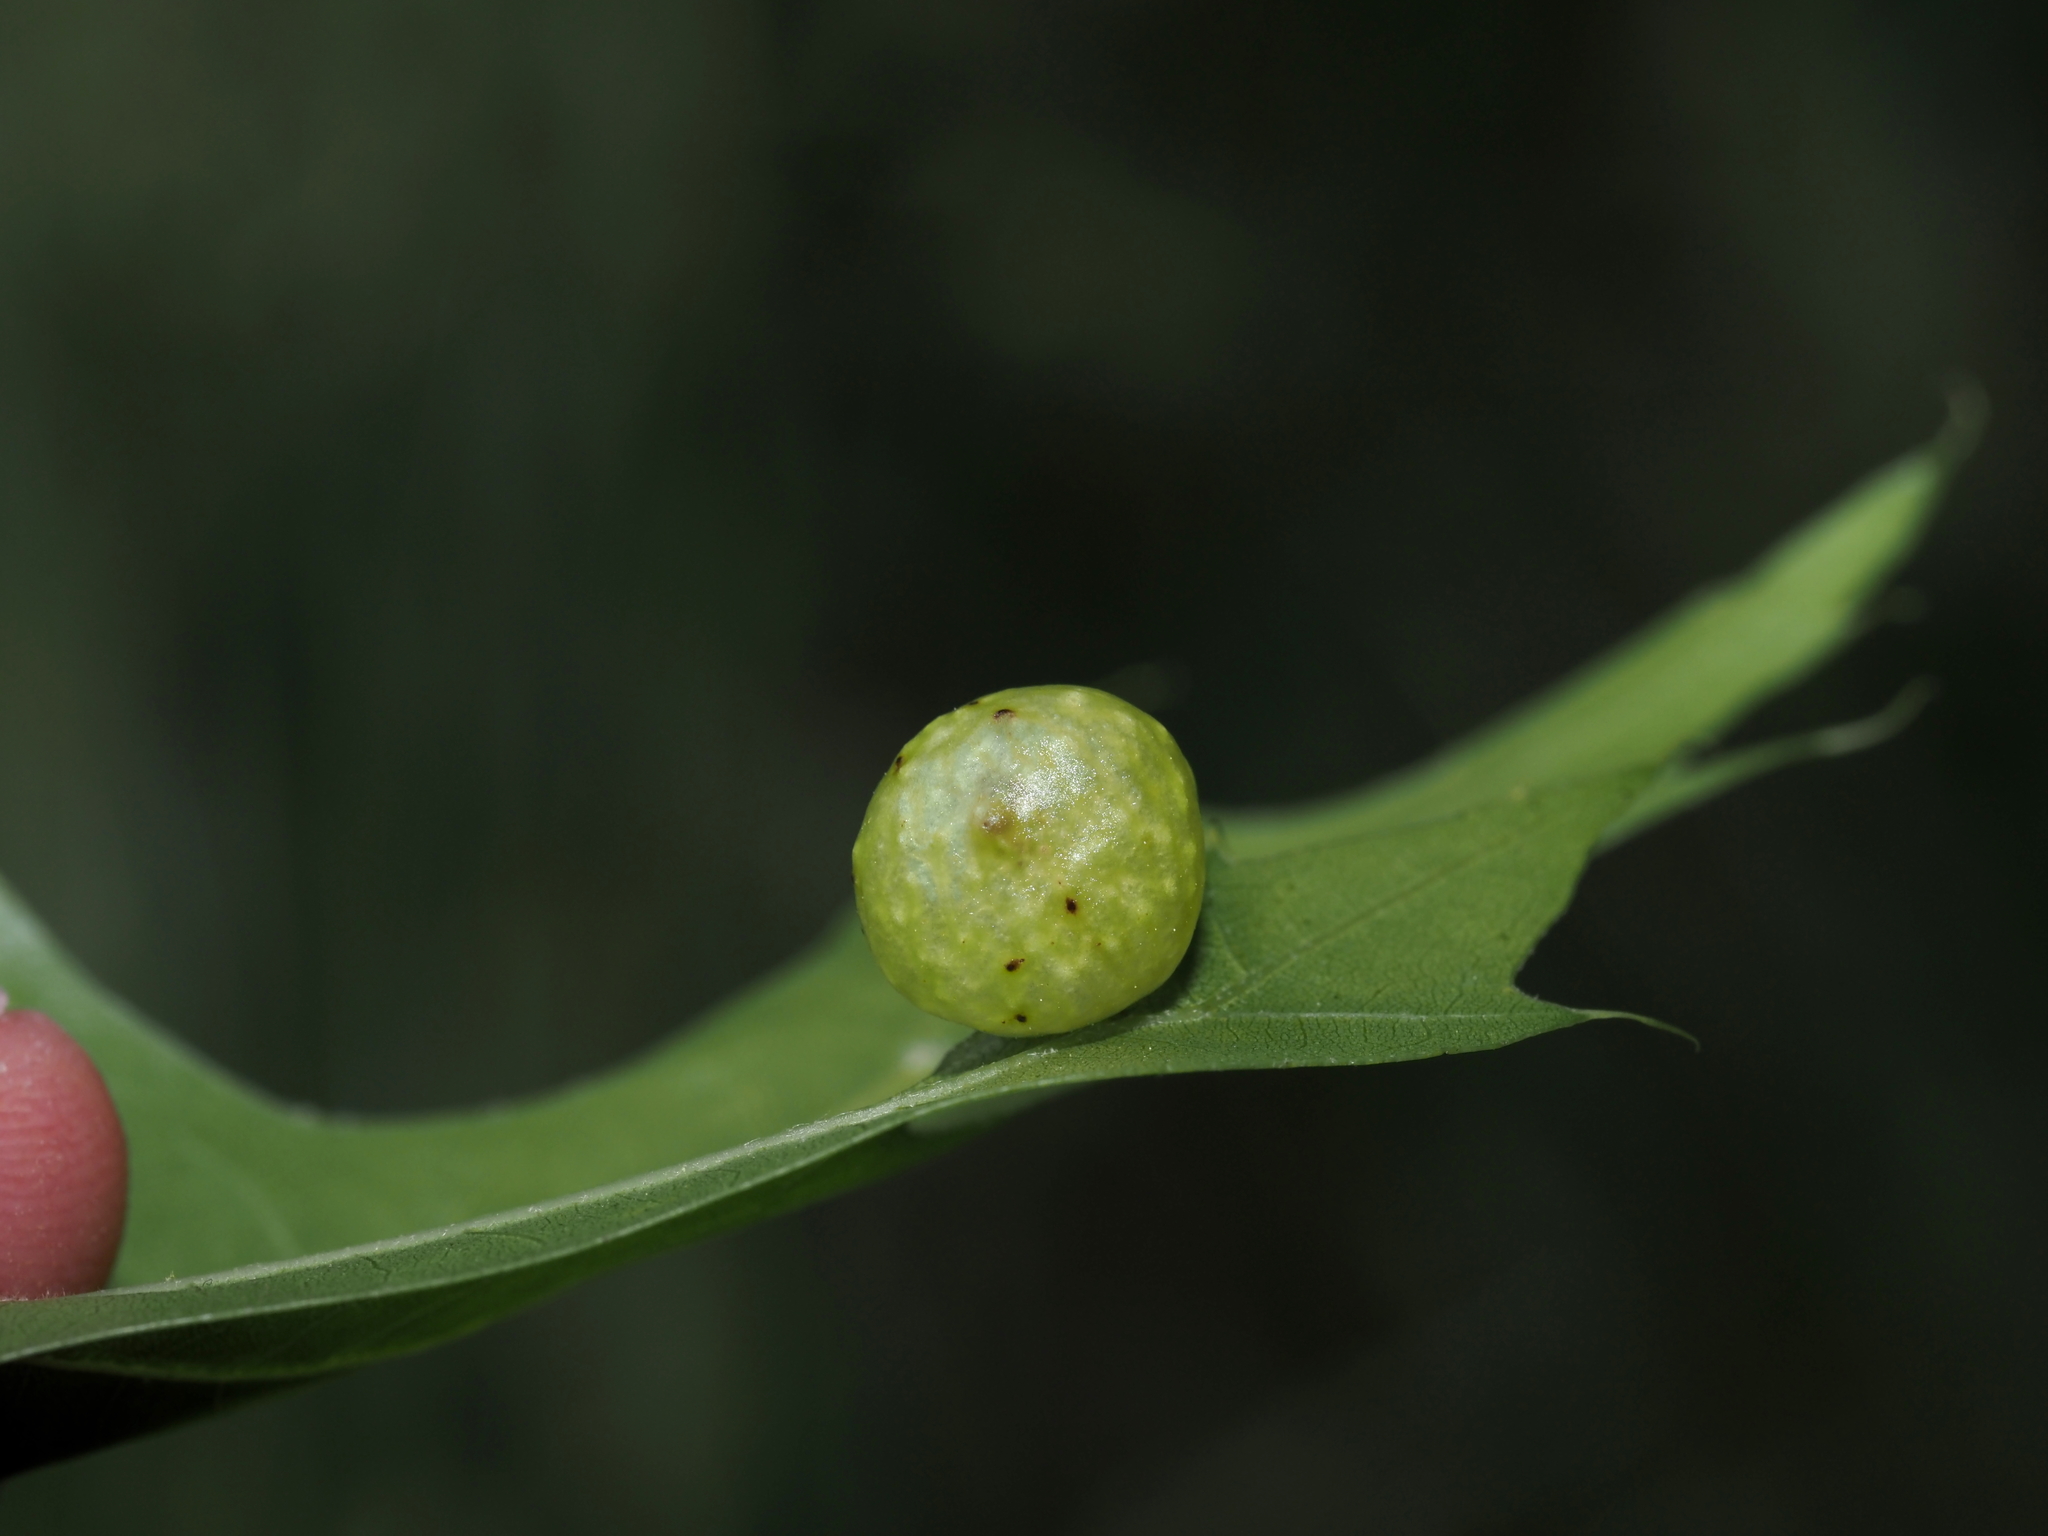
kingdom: Animalia
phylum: Arthropoda
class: Insecta
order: Hymenoptera
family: Cynipidae
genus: Amphibolips
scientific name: Amphibolips
